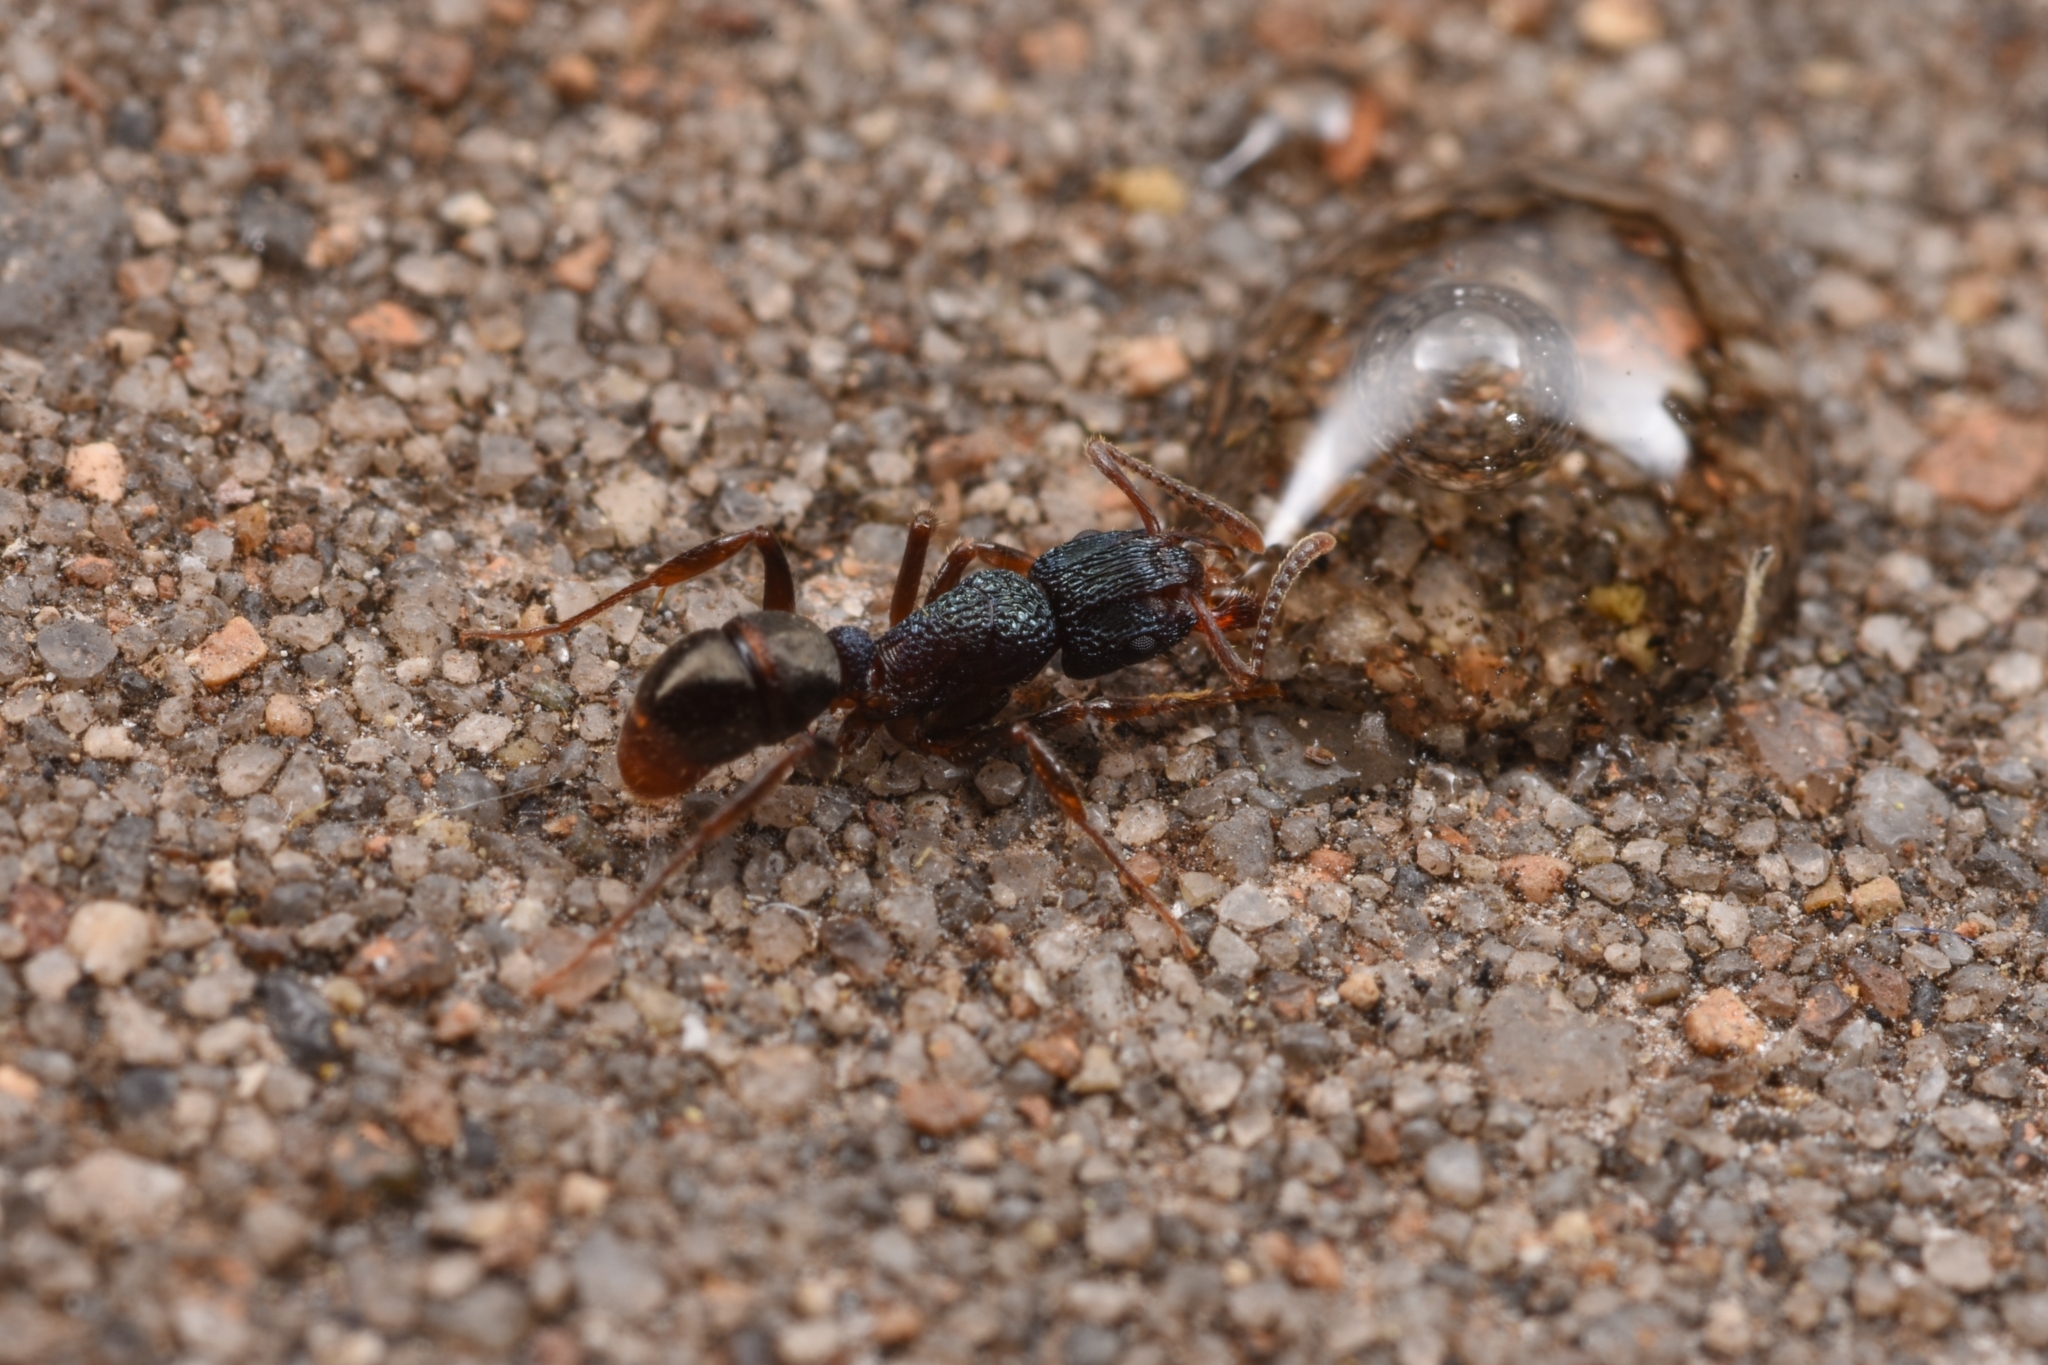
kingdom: Animalia
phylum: Arthropoda
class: Insecta
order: Hymenoptera
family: Formicidae
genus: Rhytidoponera
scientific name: Rhytidoponera victoriae
